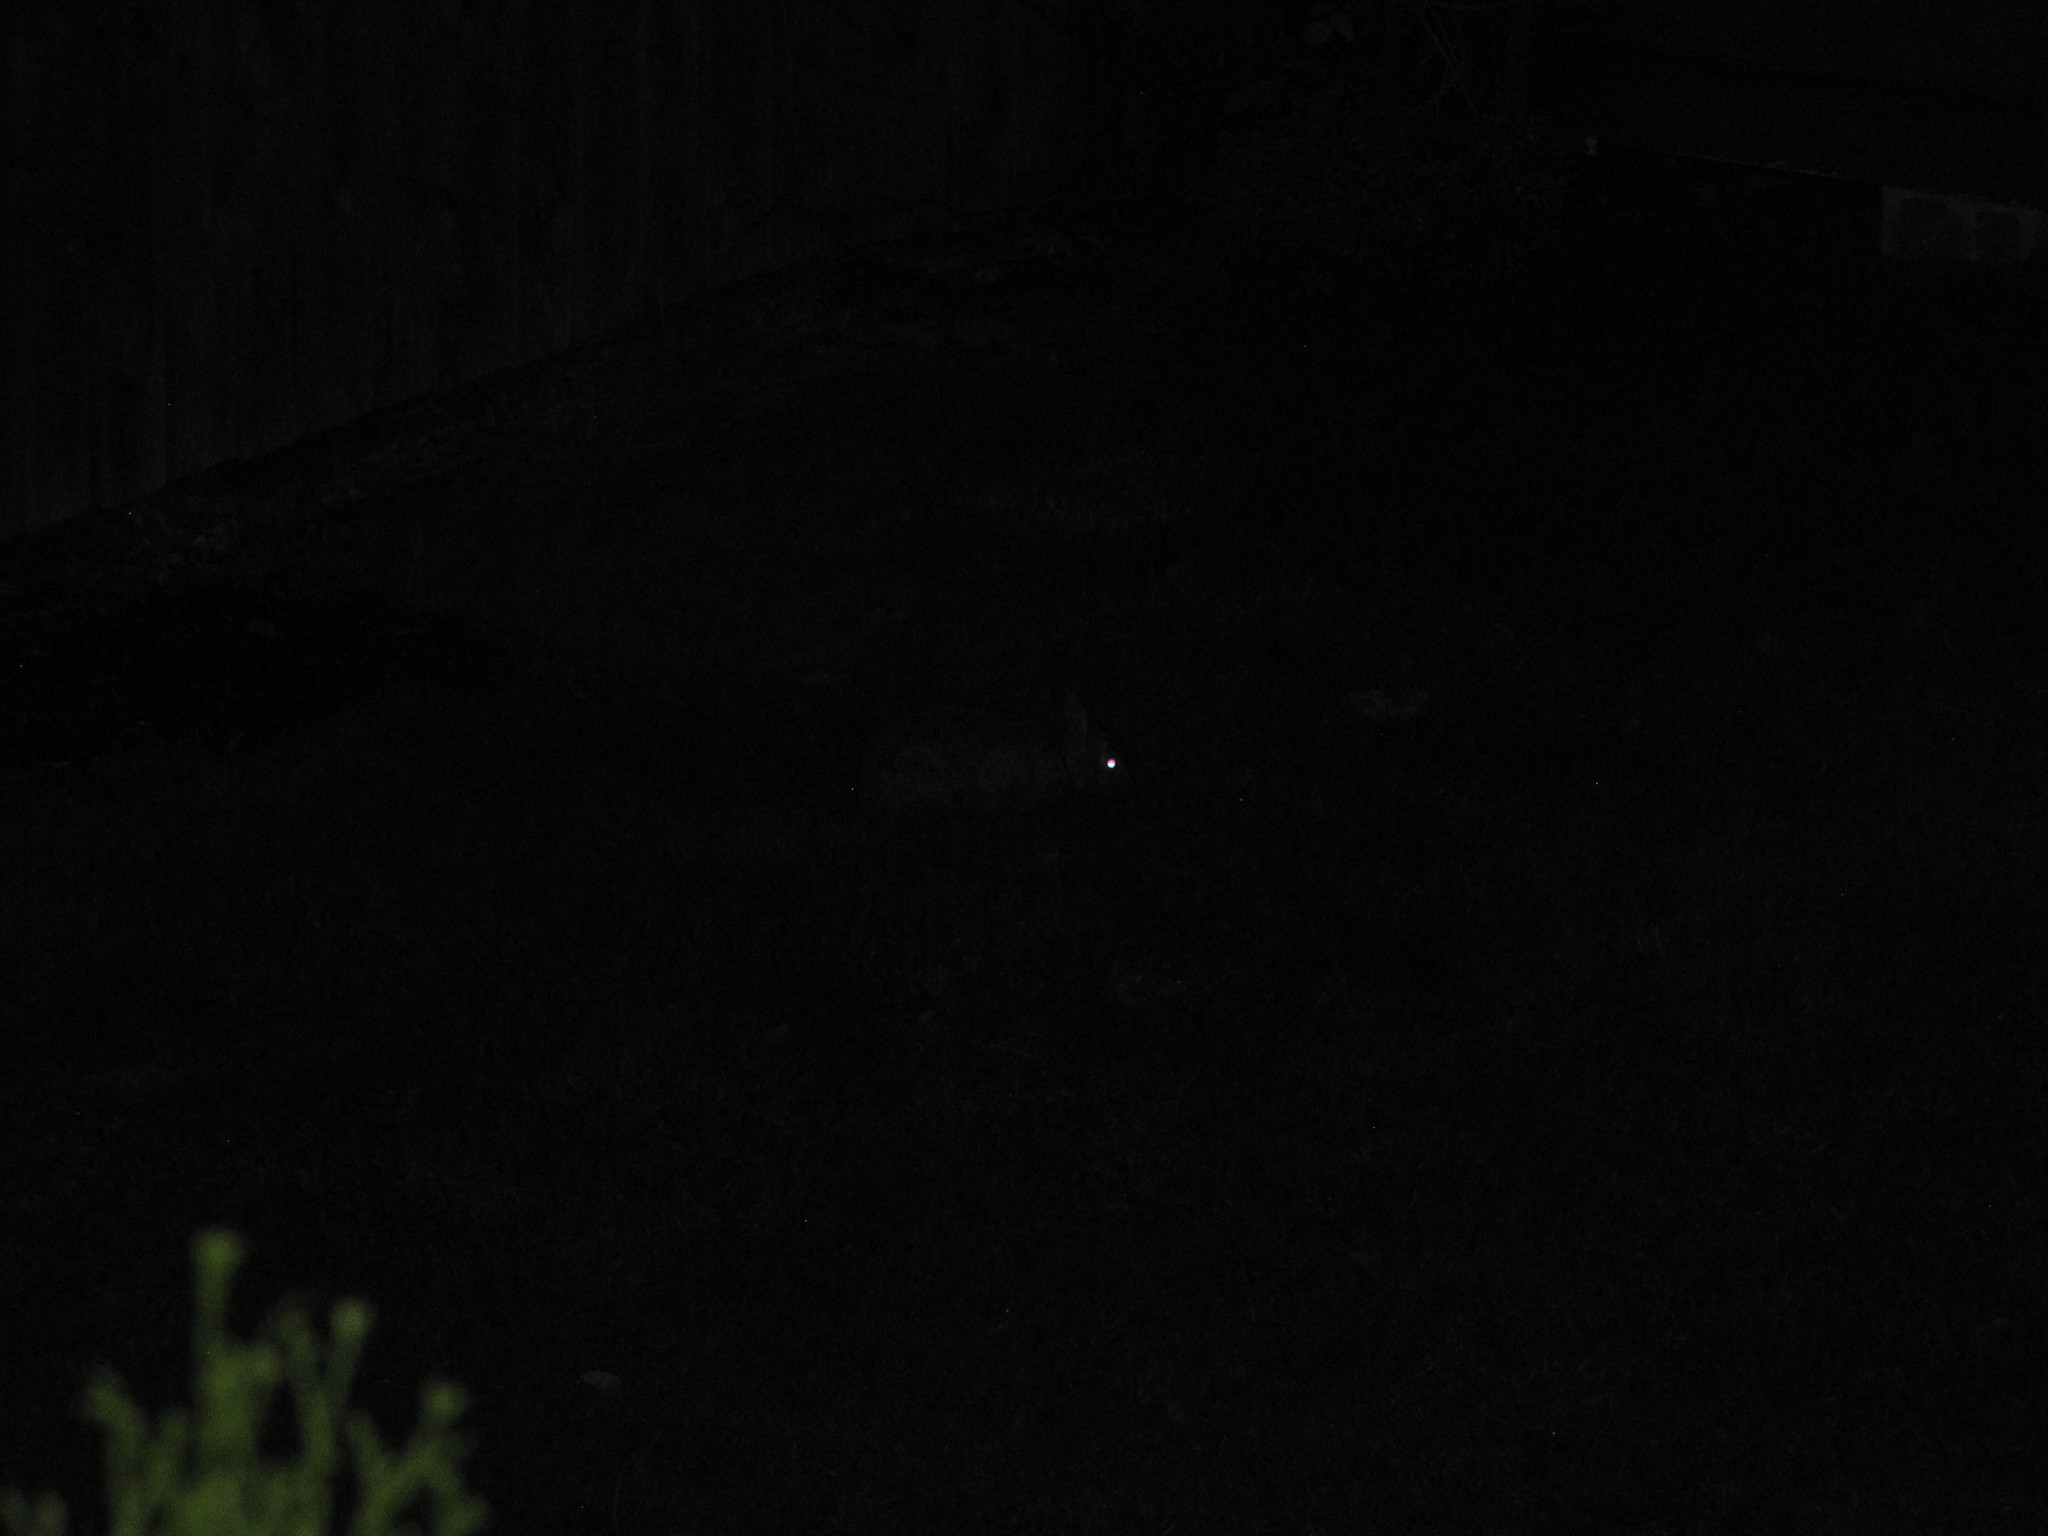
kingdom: Animalia
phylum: Chordata
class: Mammalia
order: Lagomorpha
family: Leporidae
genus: Sylvilagus
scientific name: Sylvilagus floridanus
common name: Eastern cottontail
